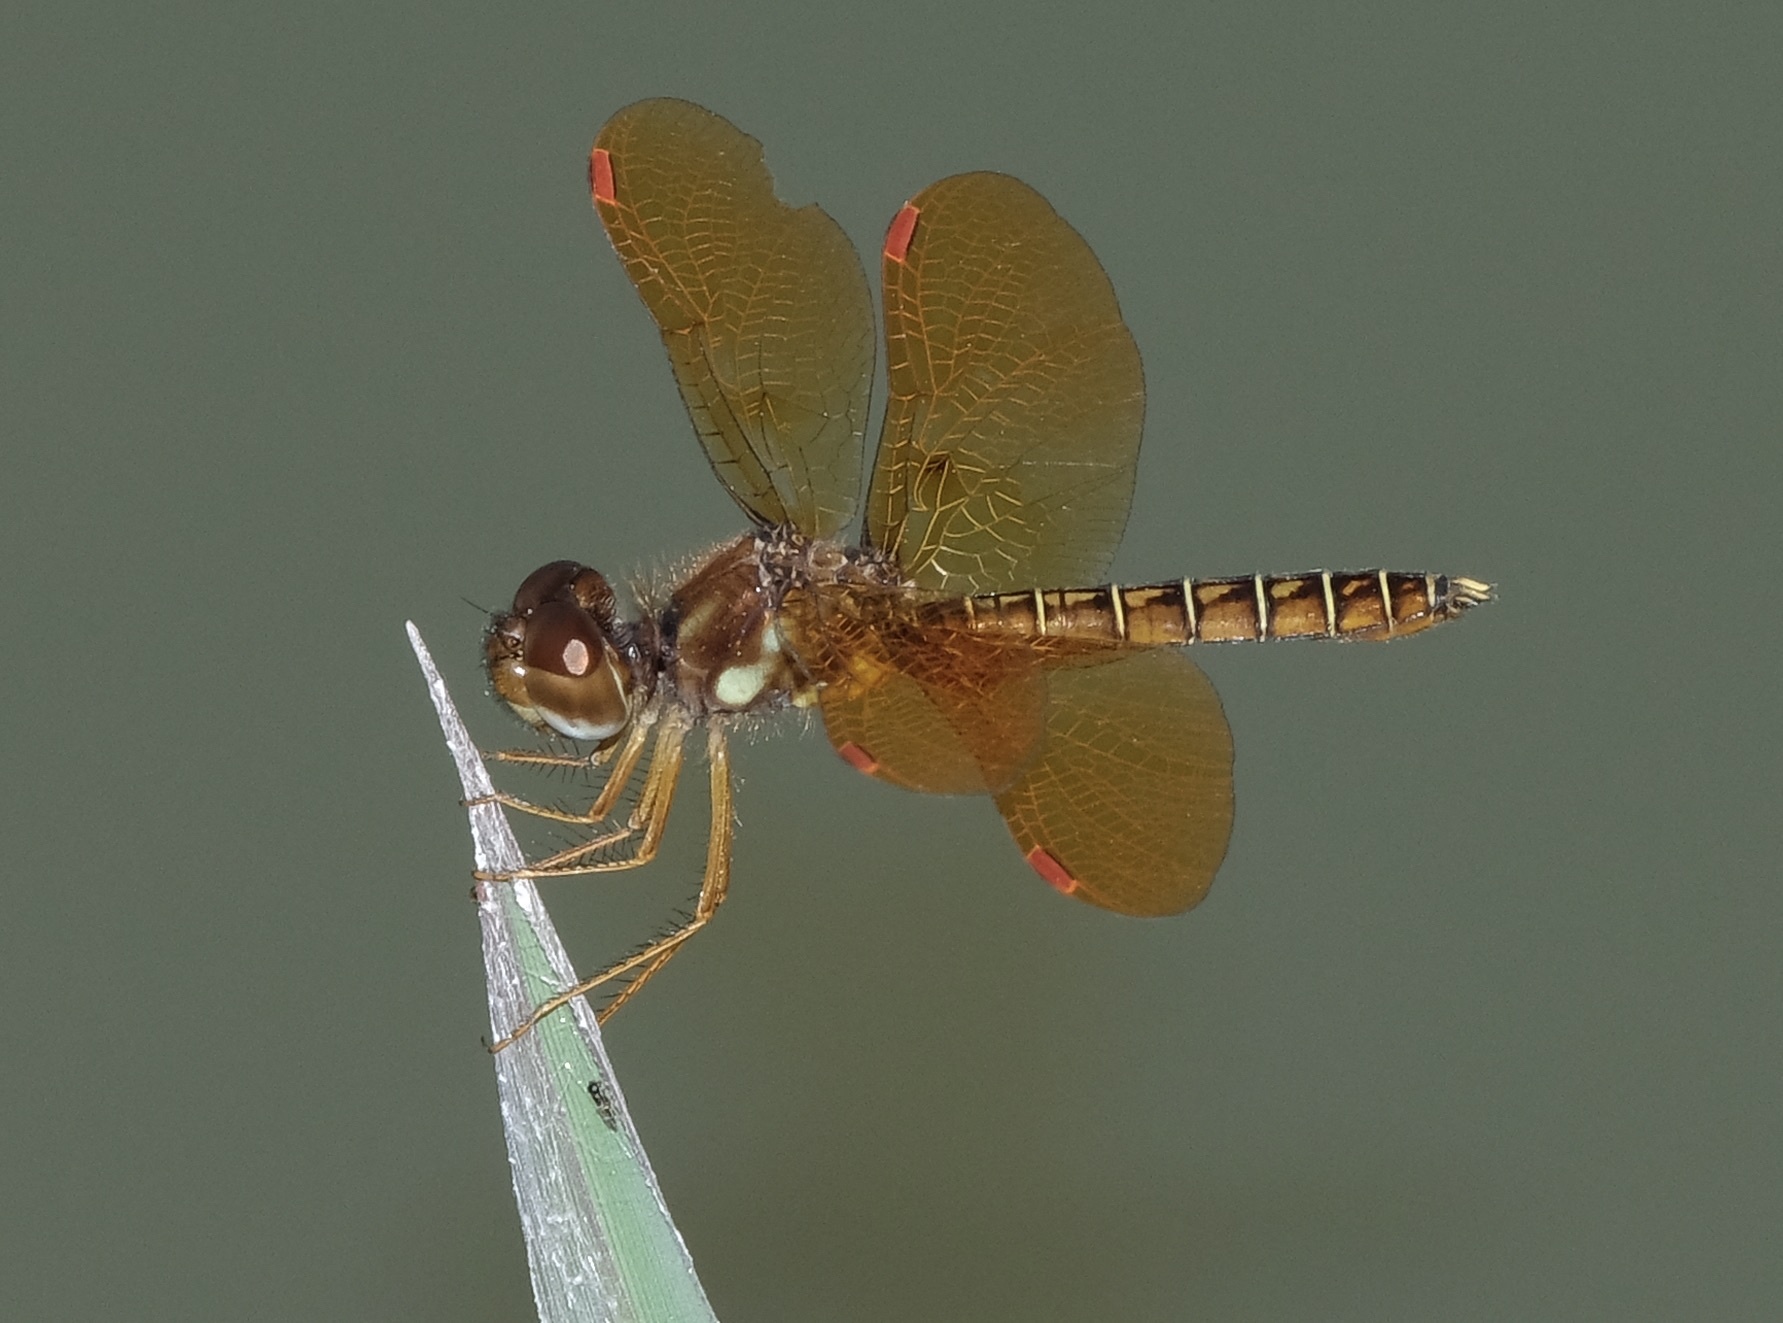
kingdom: Animalia
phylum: Arthropoda
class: Insecta
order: Odonata
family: Libellulidae
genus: Perithemis
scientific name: Perithemis tenera
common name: Eastern amberwing
